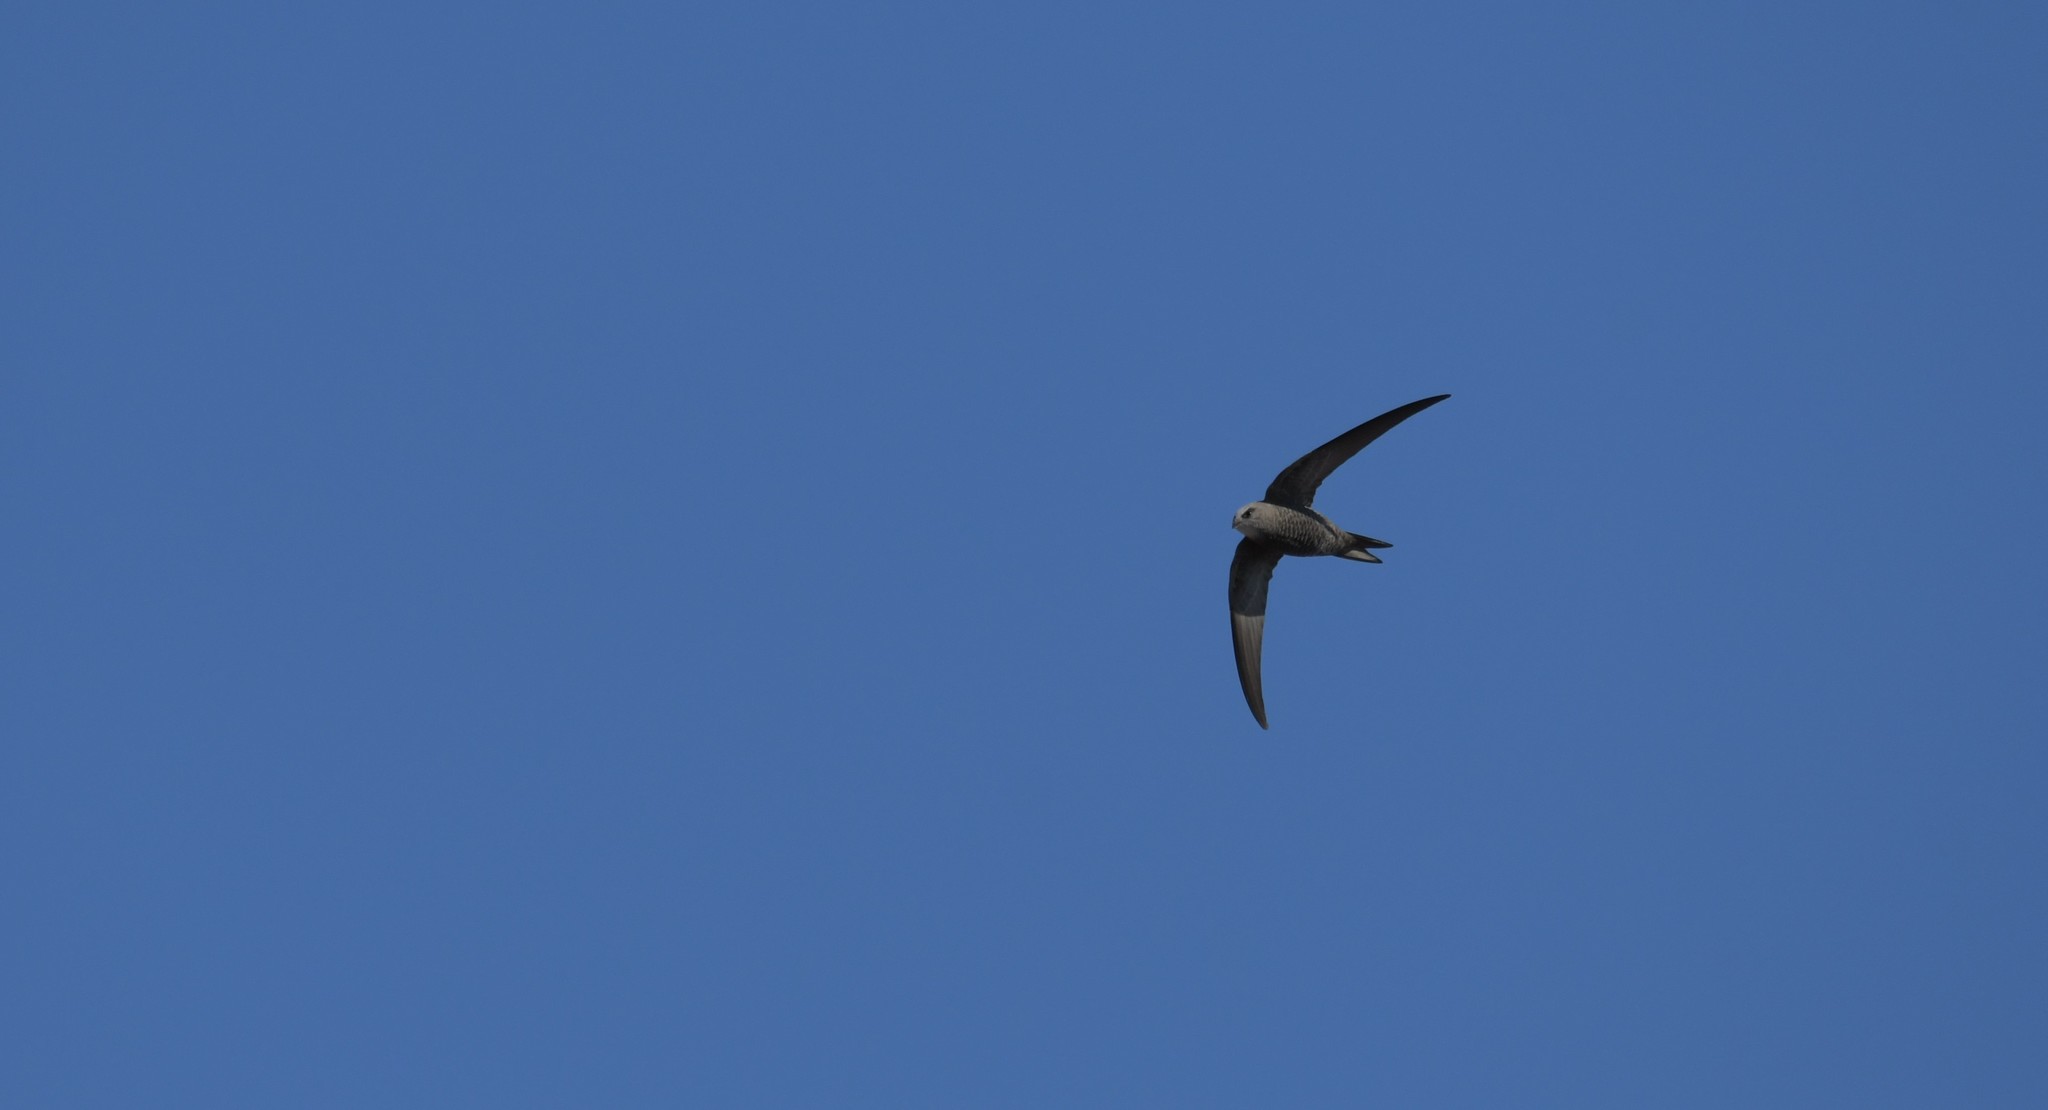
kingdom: Animalia
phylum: Chordata
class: Aves
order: Apodiformes
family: Apodidae
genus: Apus
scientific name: Apus pallidus
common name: Pallid swift
